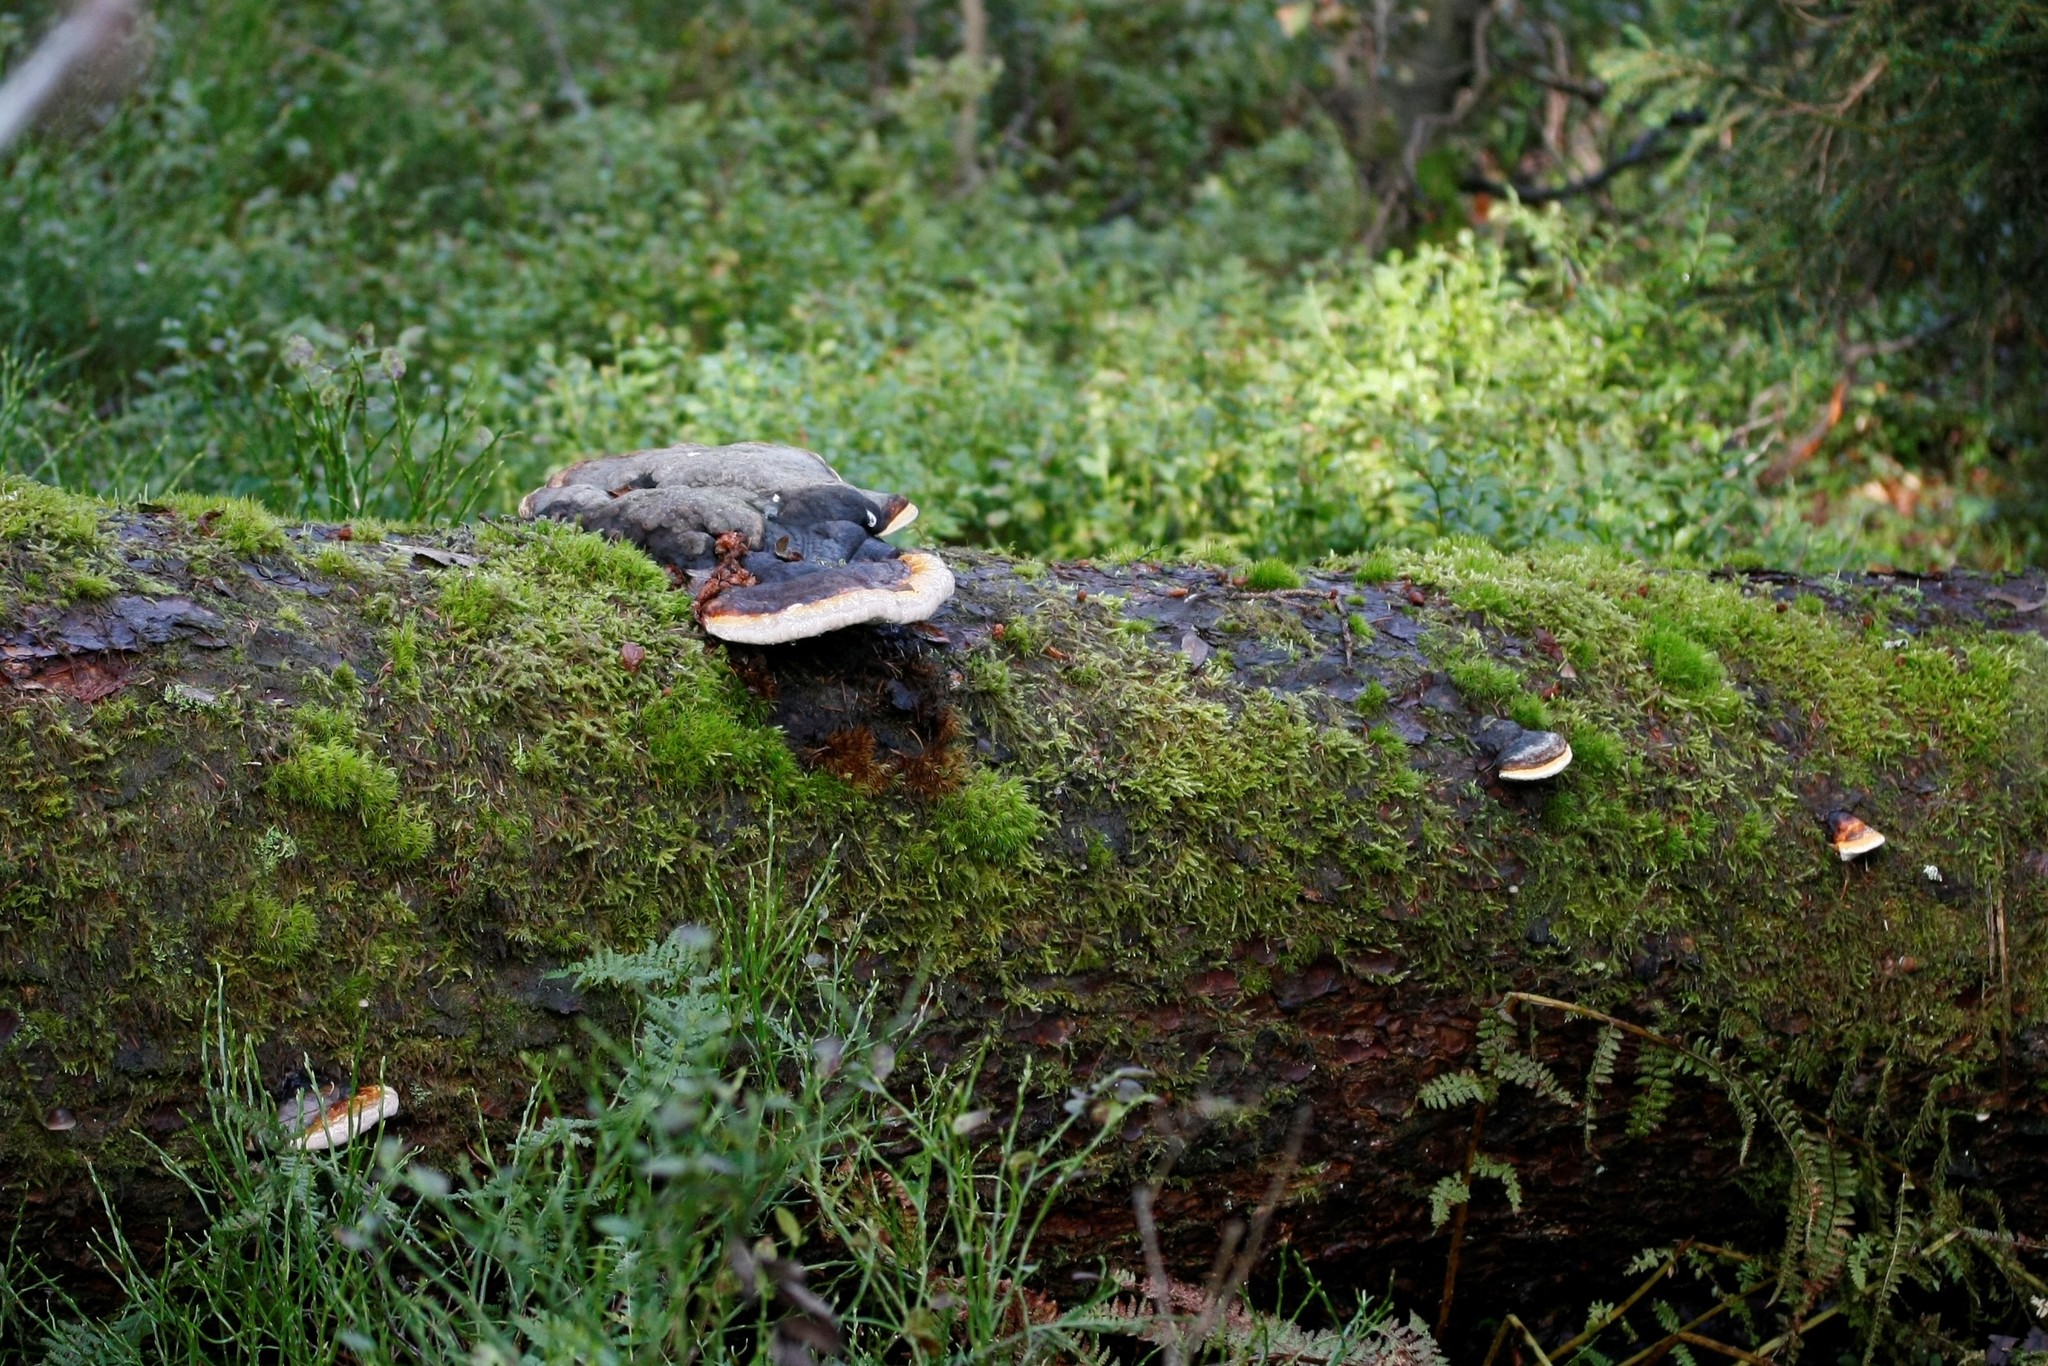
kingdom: Fungi
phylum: Basidiomycota
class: Agaricomycetes
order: Polyporales
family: Fomitopsidaceae
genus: Fomitopsis
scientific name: Fomitopsis pinicola
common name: Red-belted bracket
